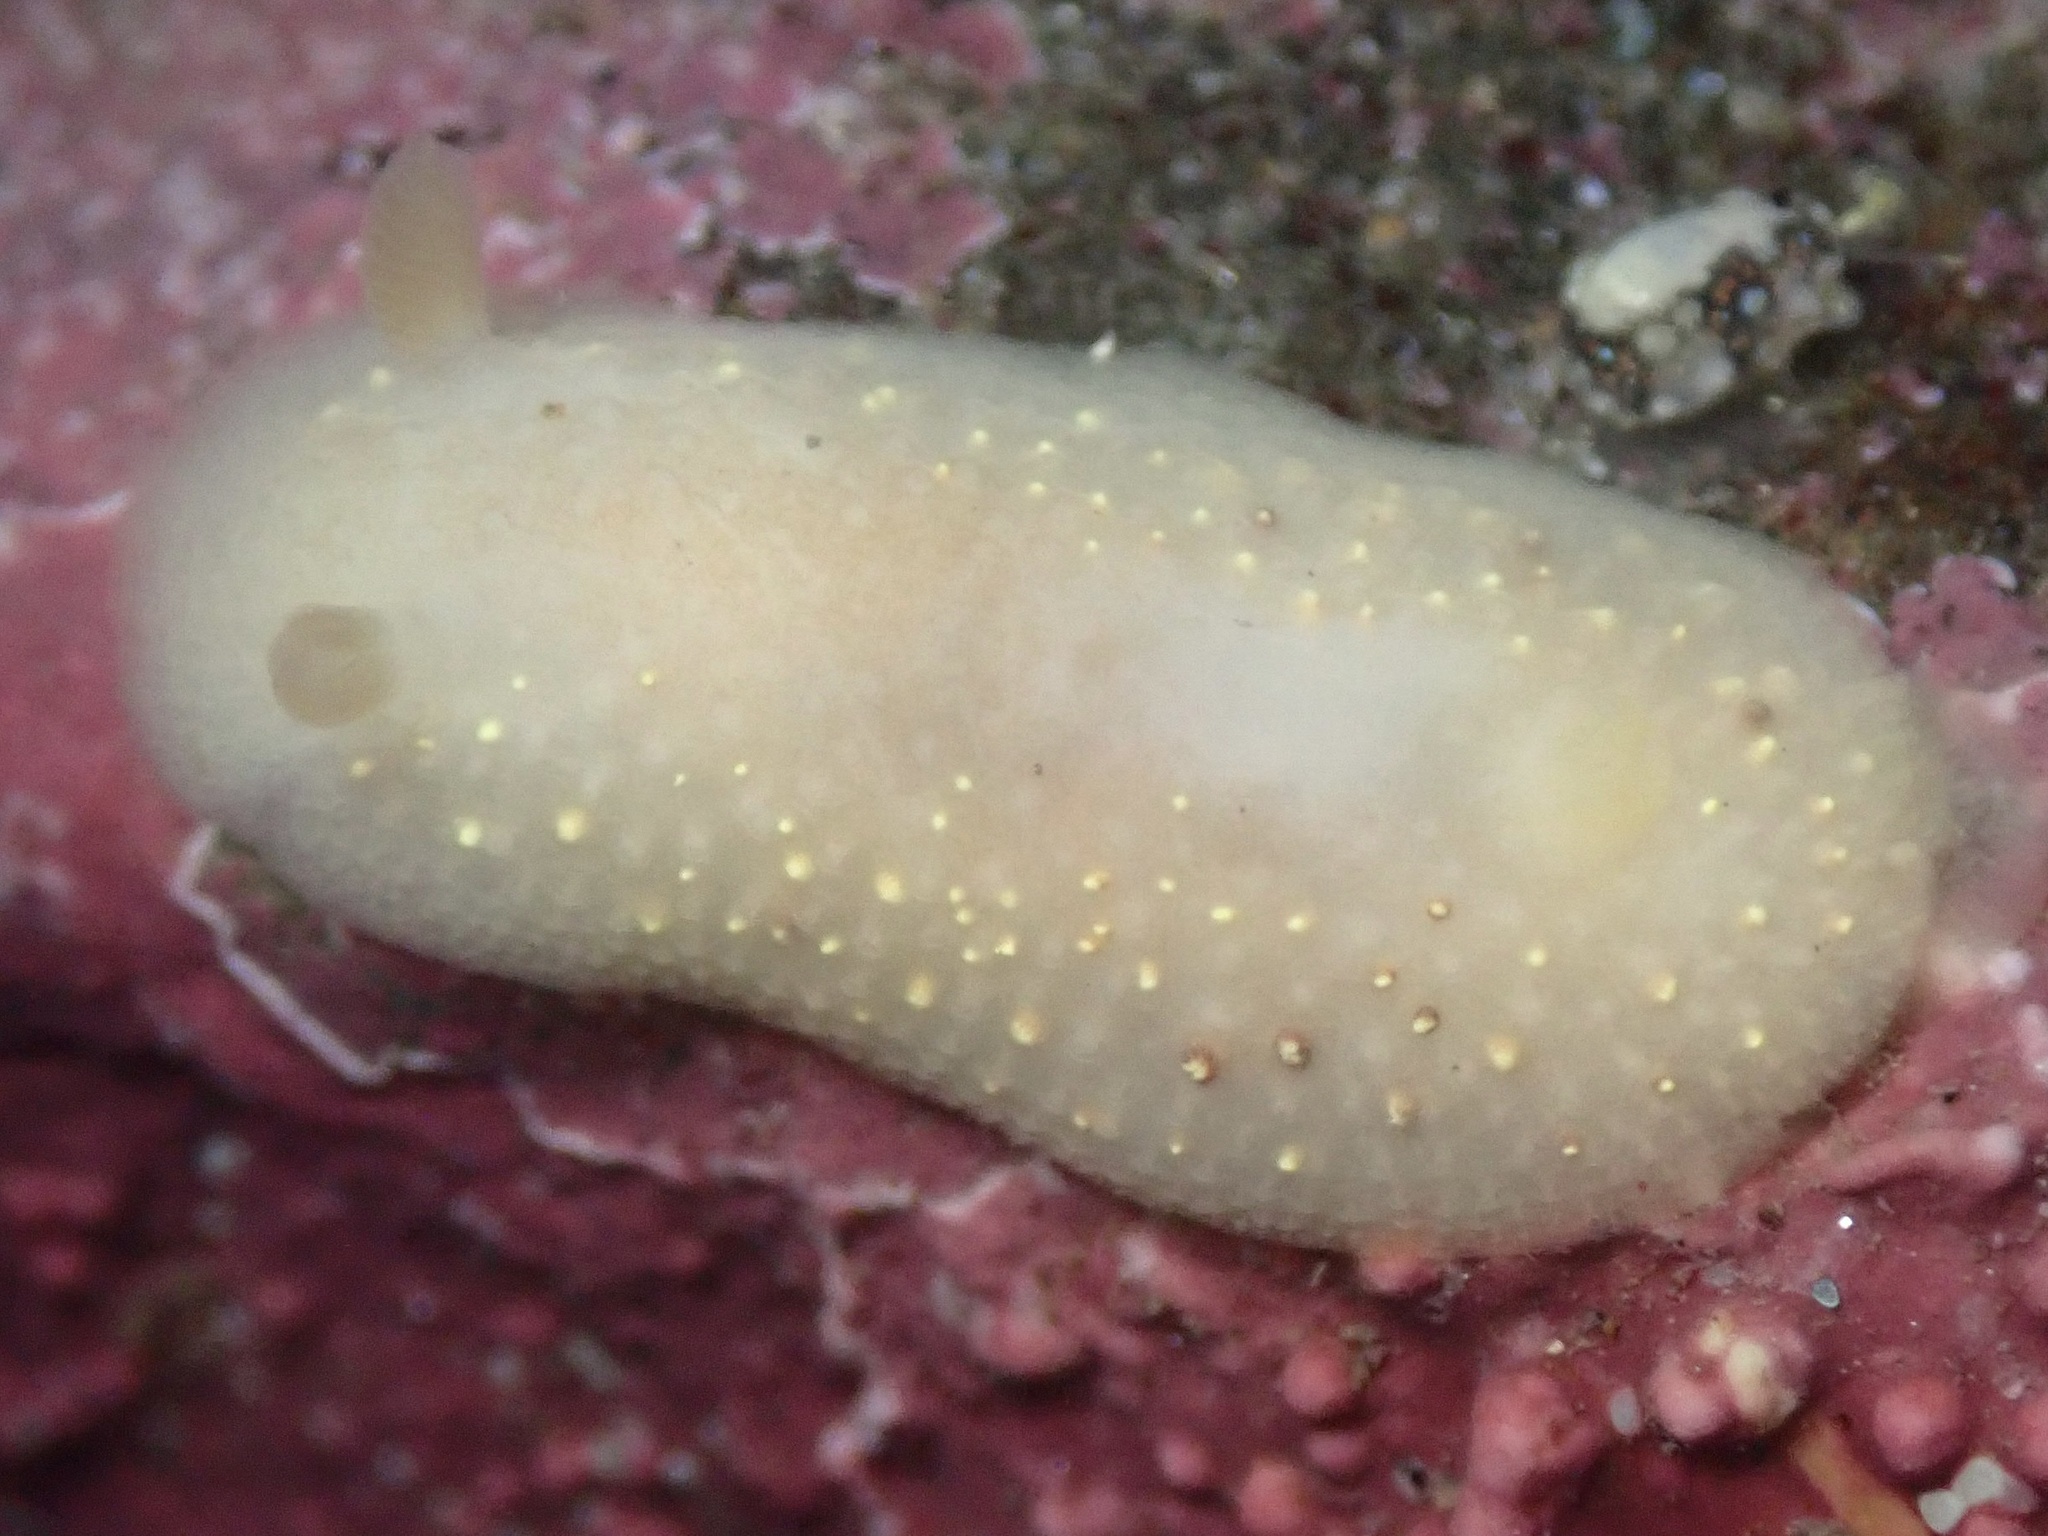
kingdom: Animalia
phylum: Mollusca
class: Gastropoda
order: Nudibranchia
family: Cadlinidae
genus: Cadlina
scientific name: Cadlina sparsa
